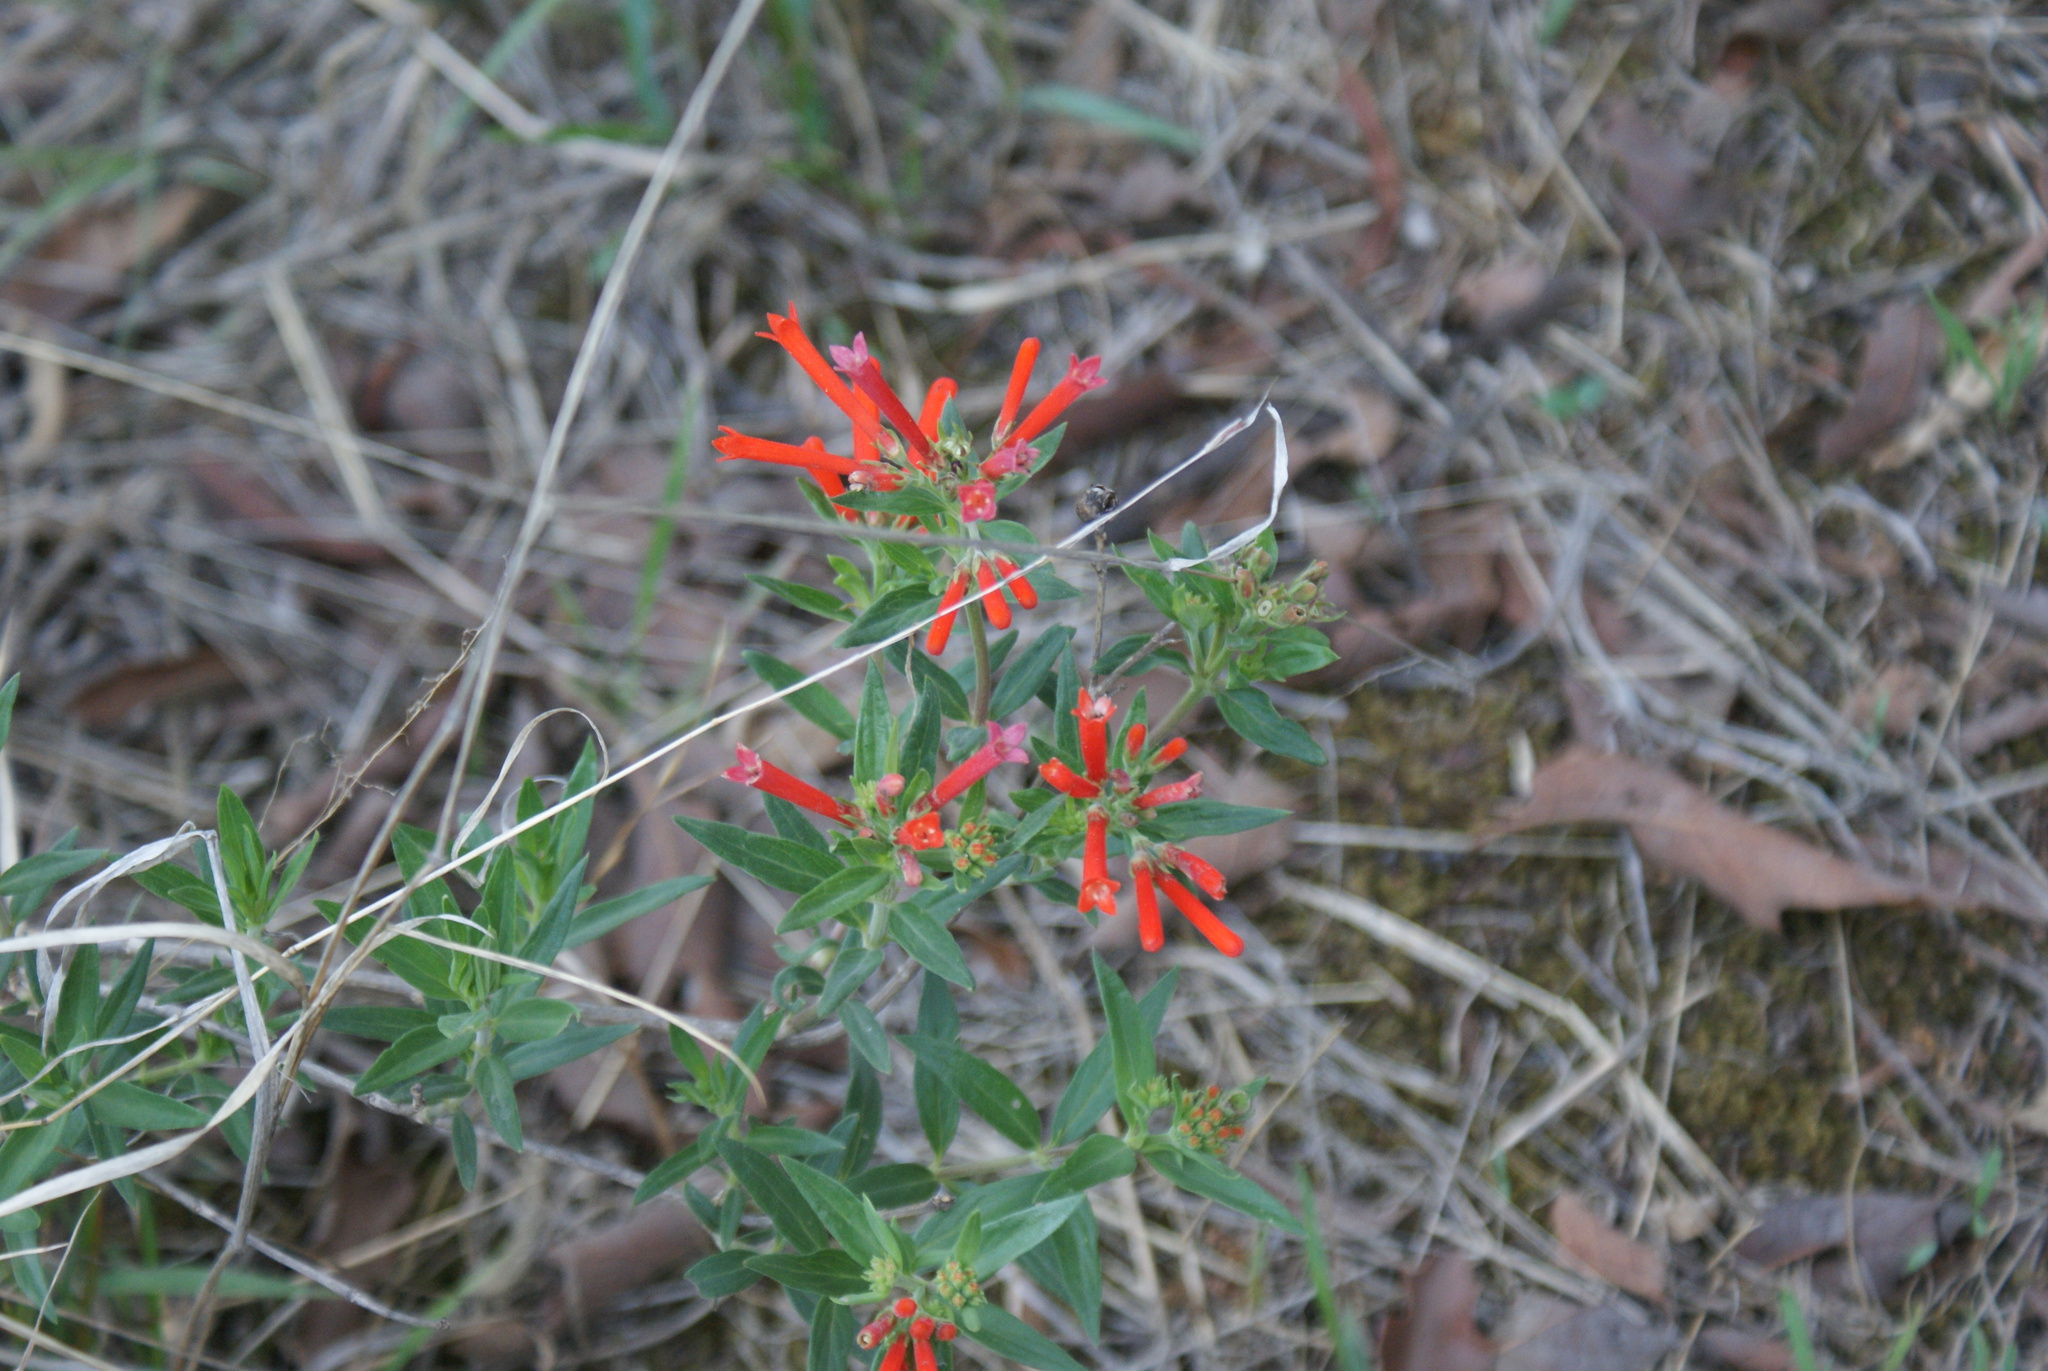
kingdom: Plantae
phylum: Tracheophyta
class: Magnoliopsida
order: Gentianales
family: Rubiaceae
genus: Bouvardia
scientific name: Bouvardia ternifolia
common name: Scarlet bouvardia
